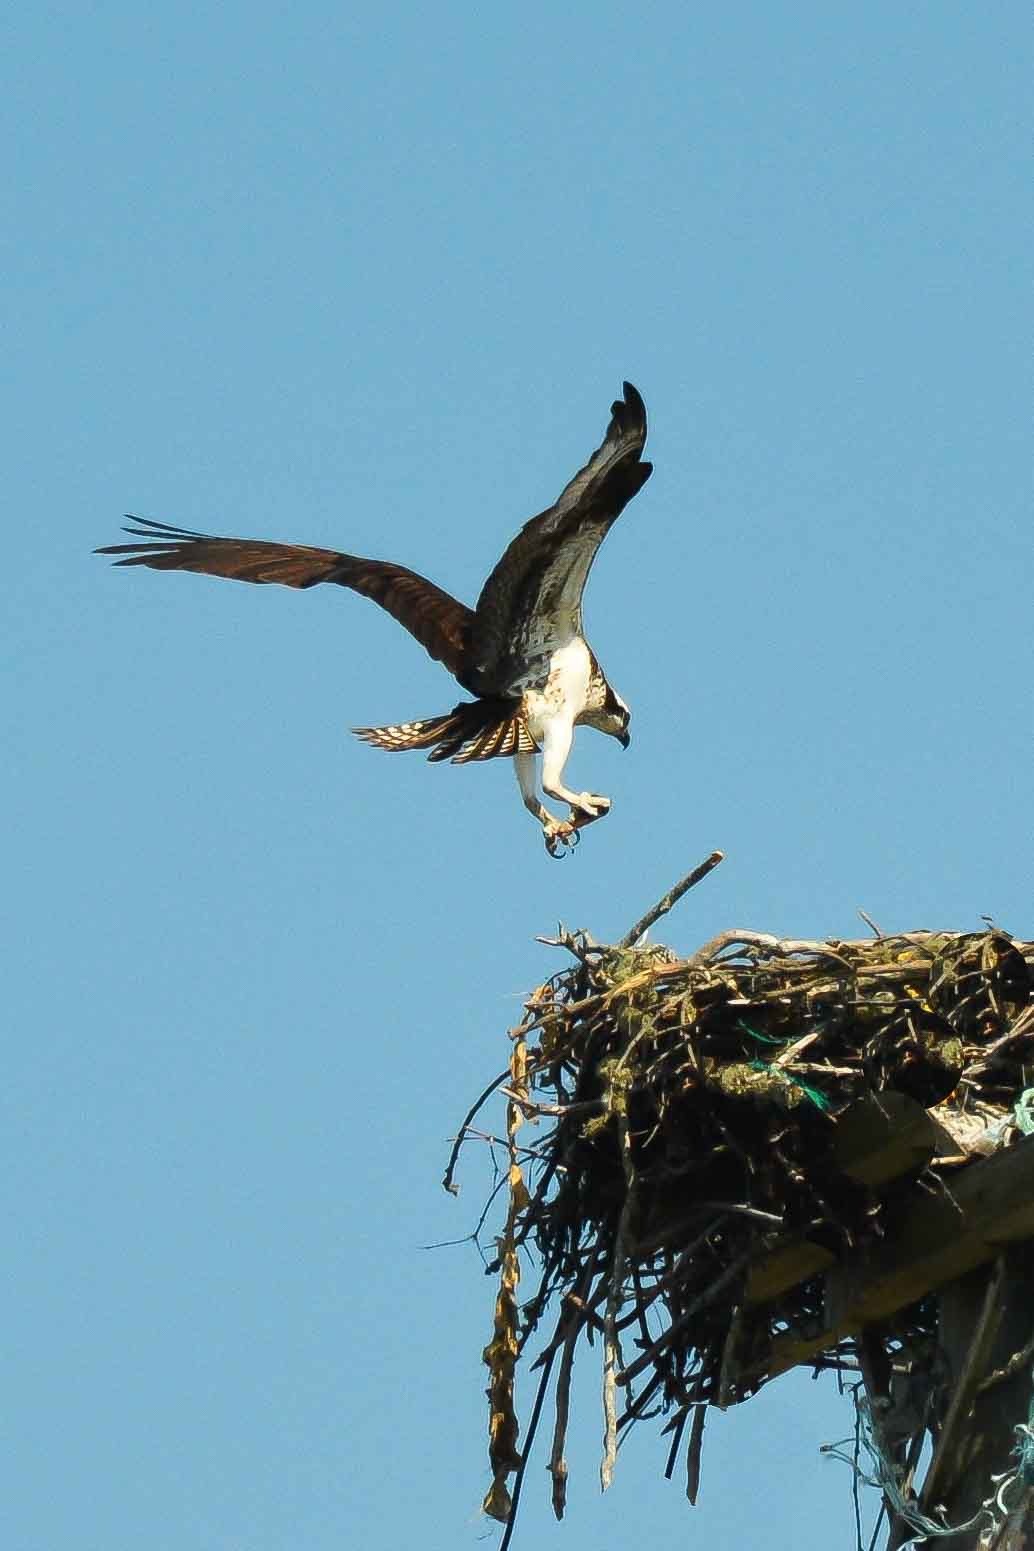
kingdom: Animalia
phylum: Chordata
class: Aves
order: Accipitriformes
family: Pandionidae
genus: Pandion
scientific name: Pandion haliaetus
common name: Osprey
